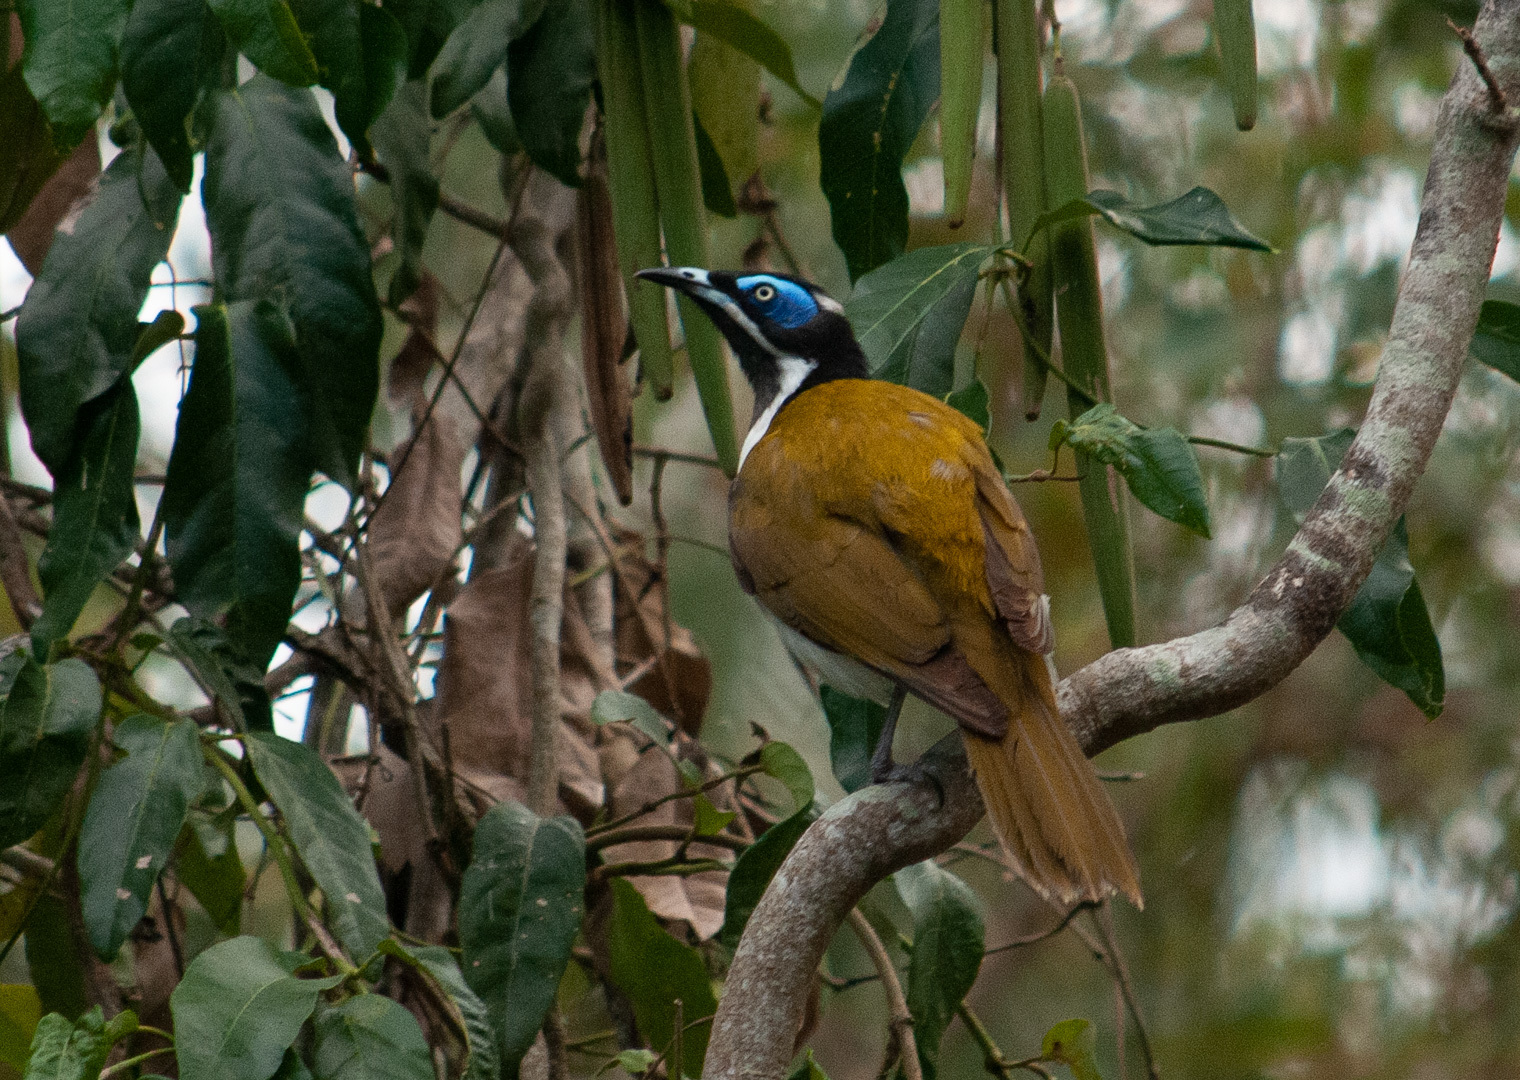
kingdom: Animalia
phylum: Chordata
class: Aves
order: Passeriformes
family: Meliphagidae
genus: Entomyzon
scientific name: Entomyzon cyanotis
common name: Blue-faced honeyeater
